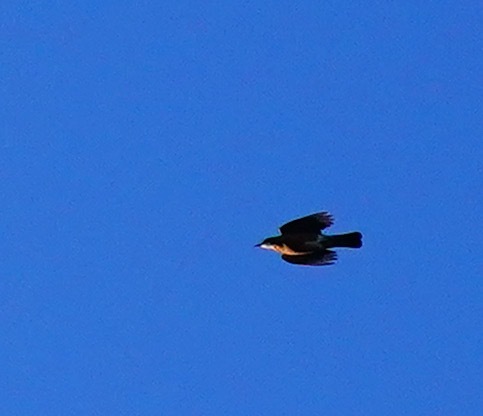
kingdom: Animalia
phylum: Chordata
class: Aves
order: Passeriformes
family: Turdidae
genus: Turdus
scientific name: Turdus migratorius
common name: American robin
